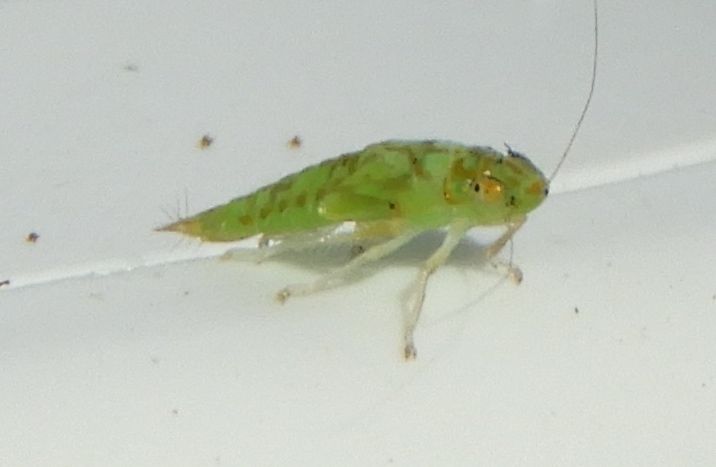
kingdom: Animalia
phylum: Arthropoda
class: Insecta
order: Hemiptera
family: Cicadellidae
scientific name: Cicadellidae
